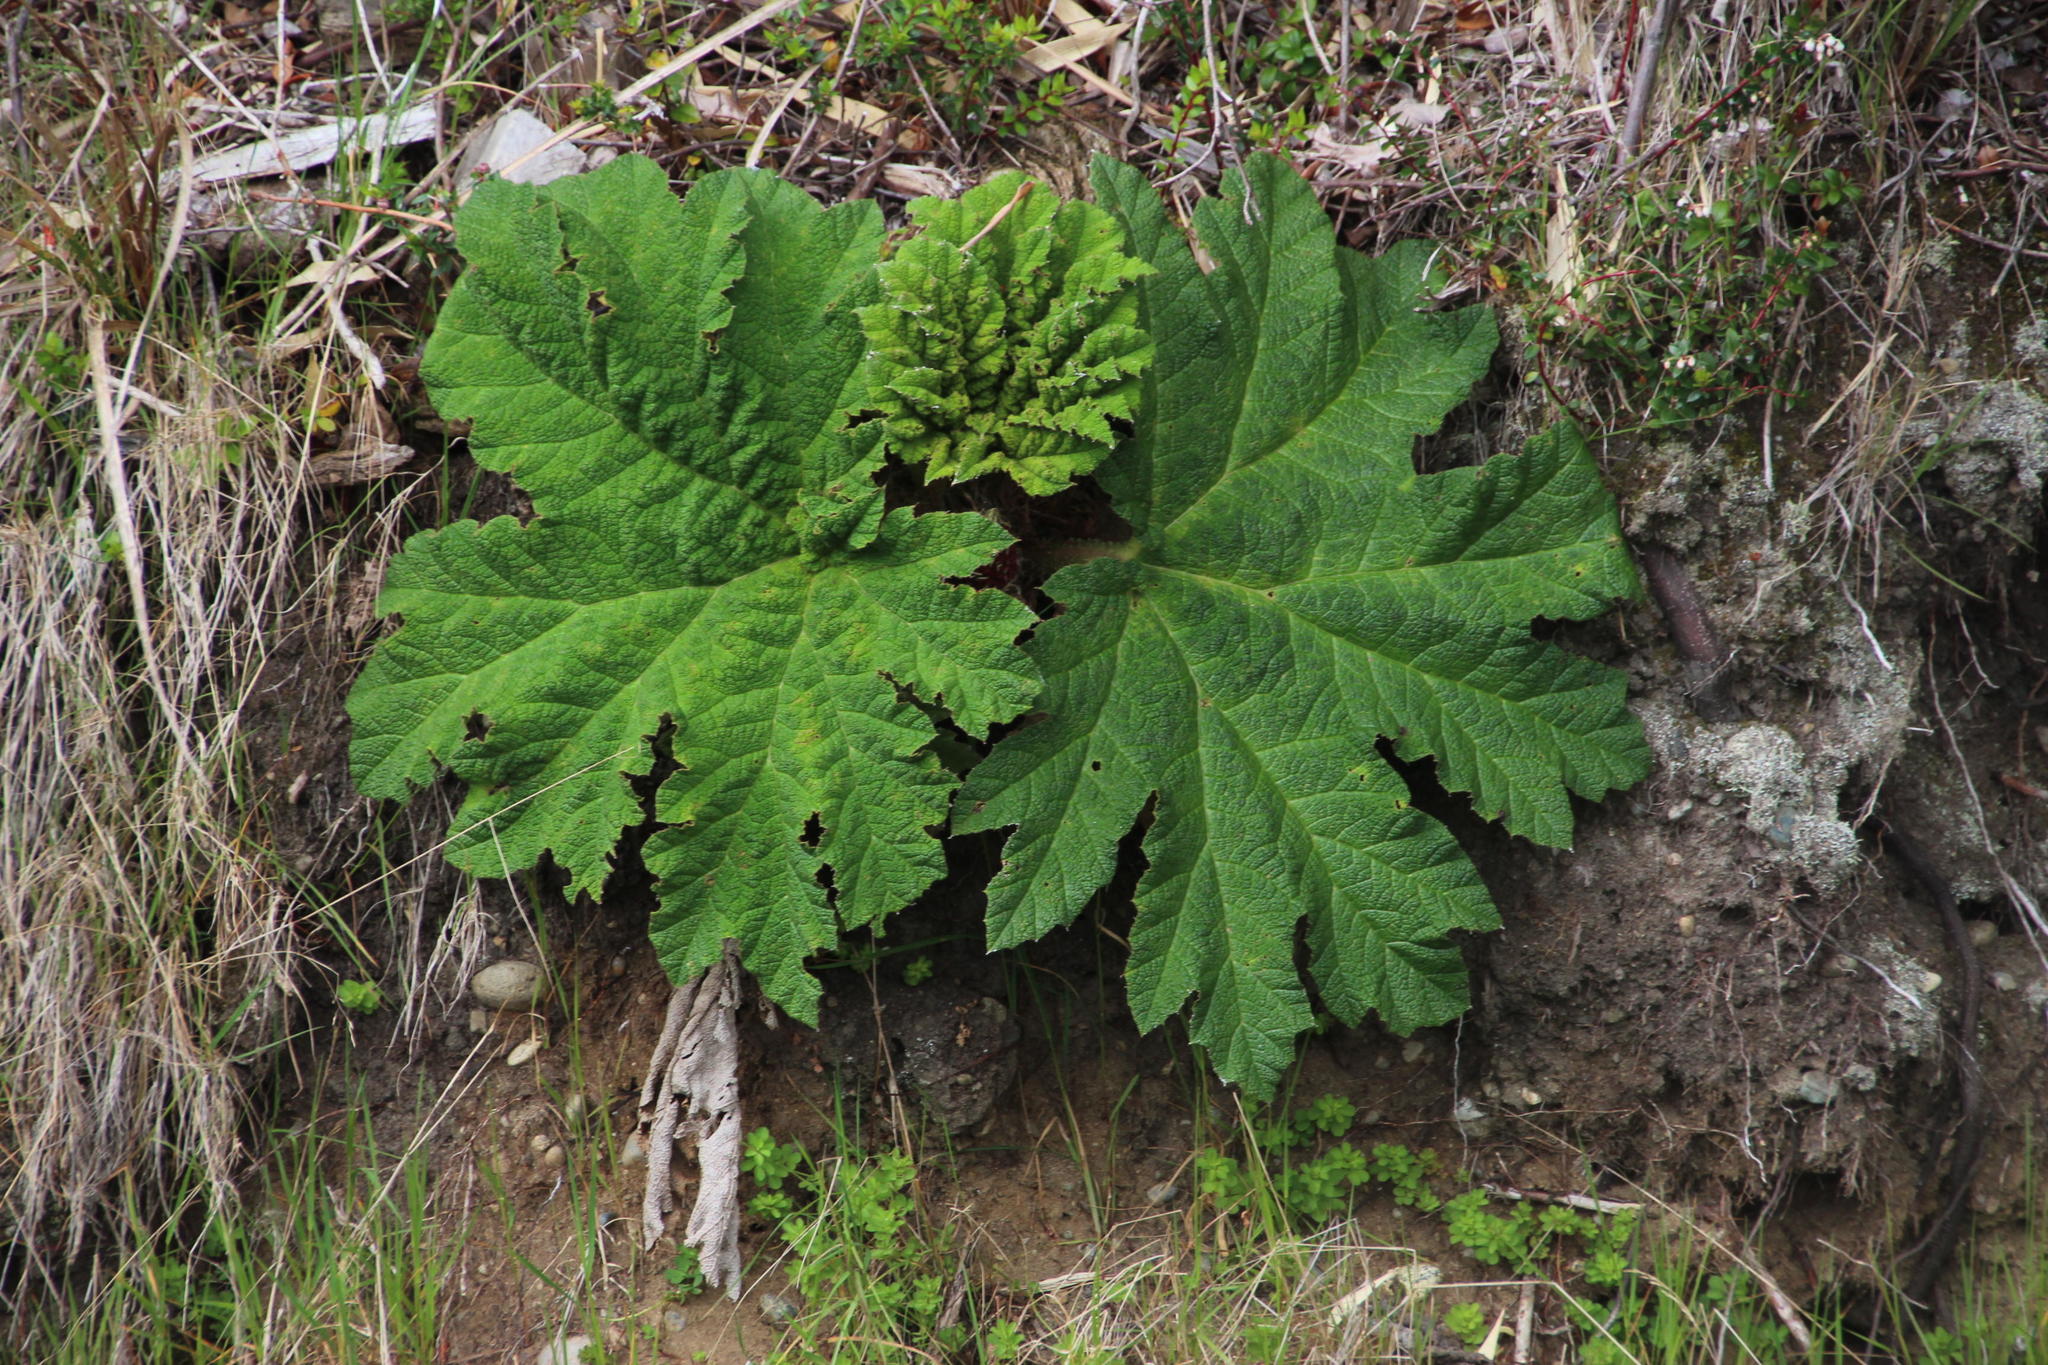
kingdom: Plantae
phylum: Tracheophyta
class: Magnoliopsida
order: Gunnerales
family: Gunneraceae
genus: Gunnera
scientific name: Gunnera tinctoria
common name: Giant-rhubarb
